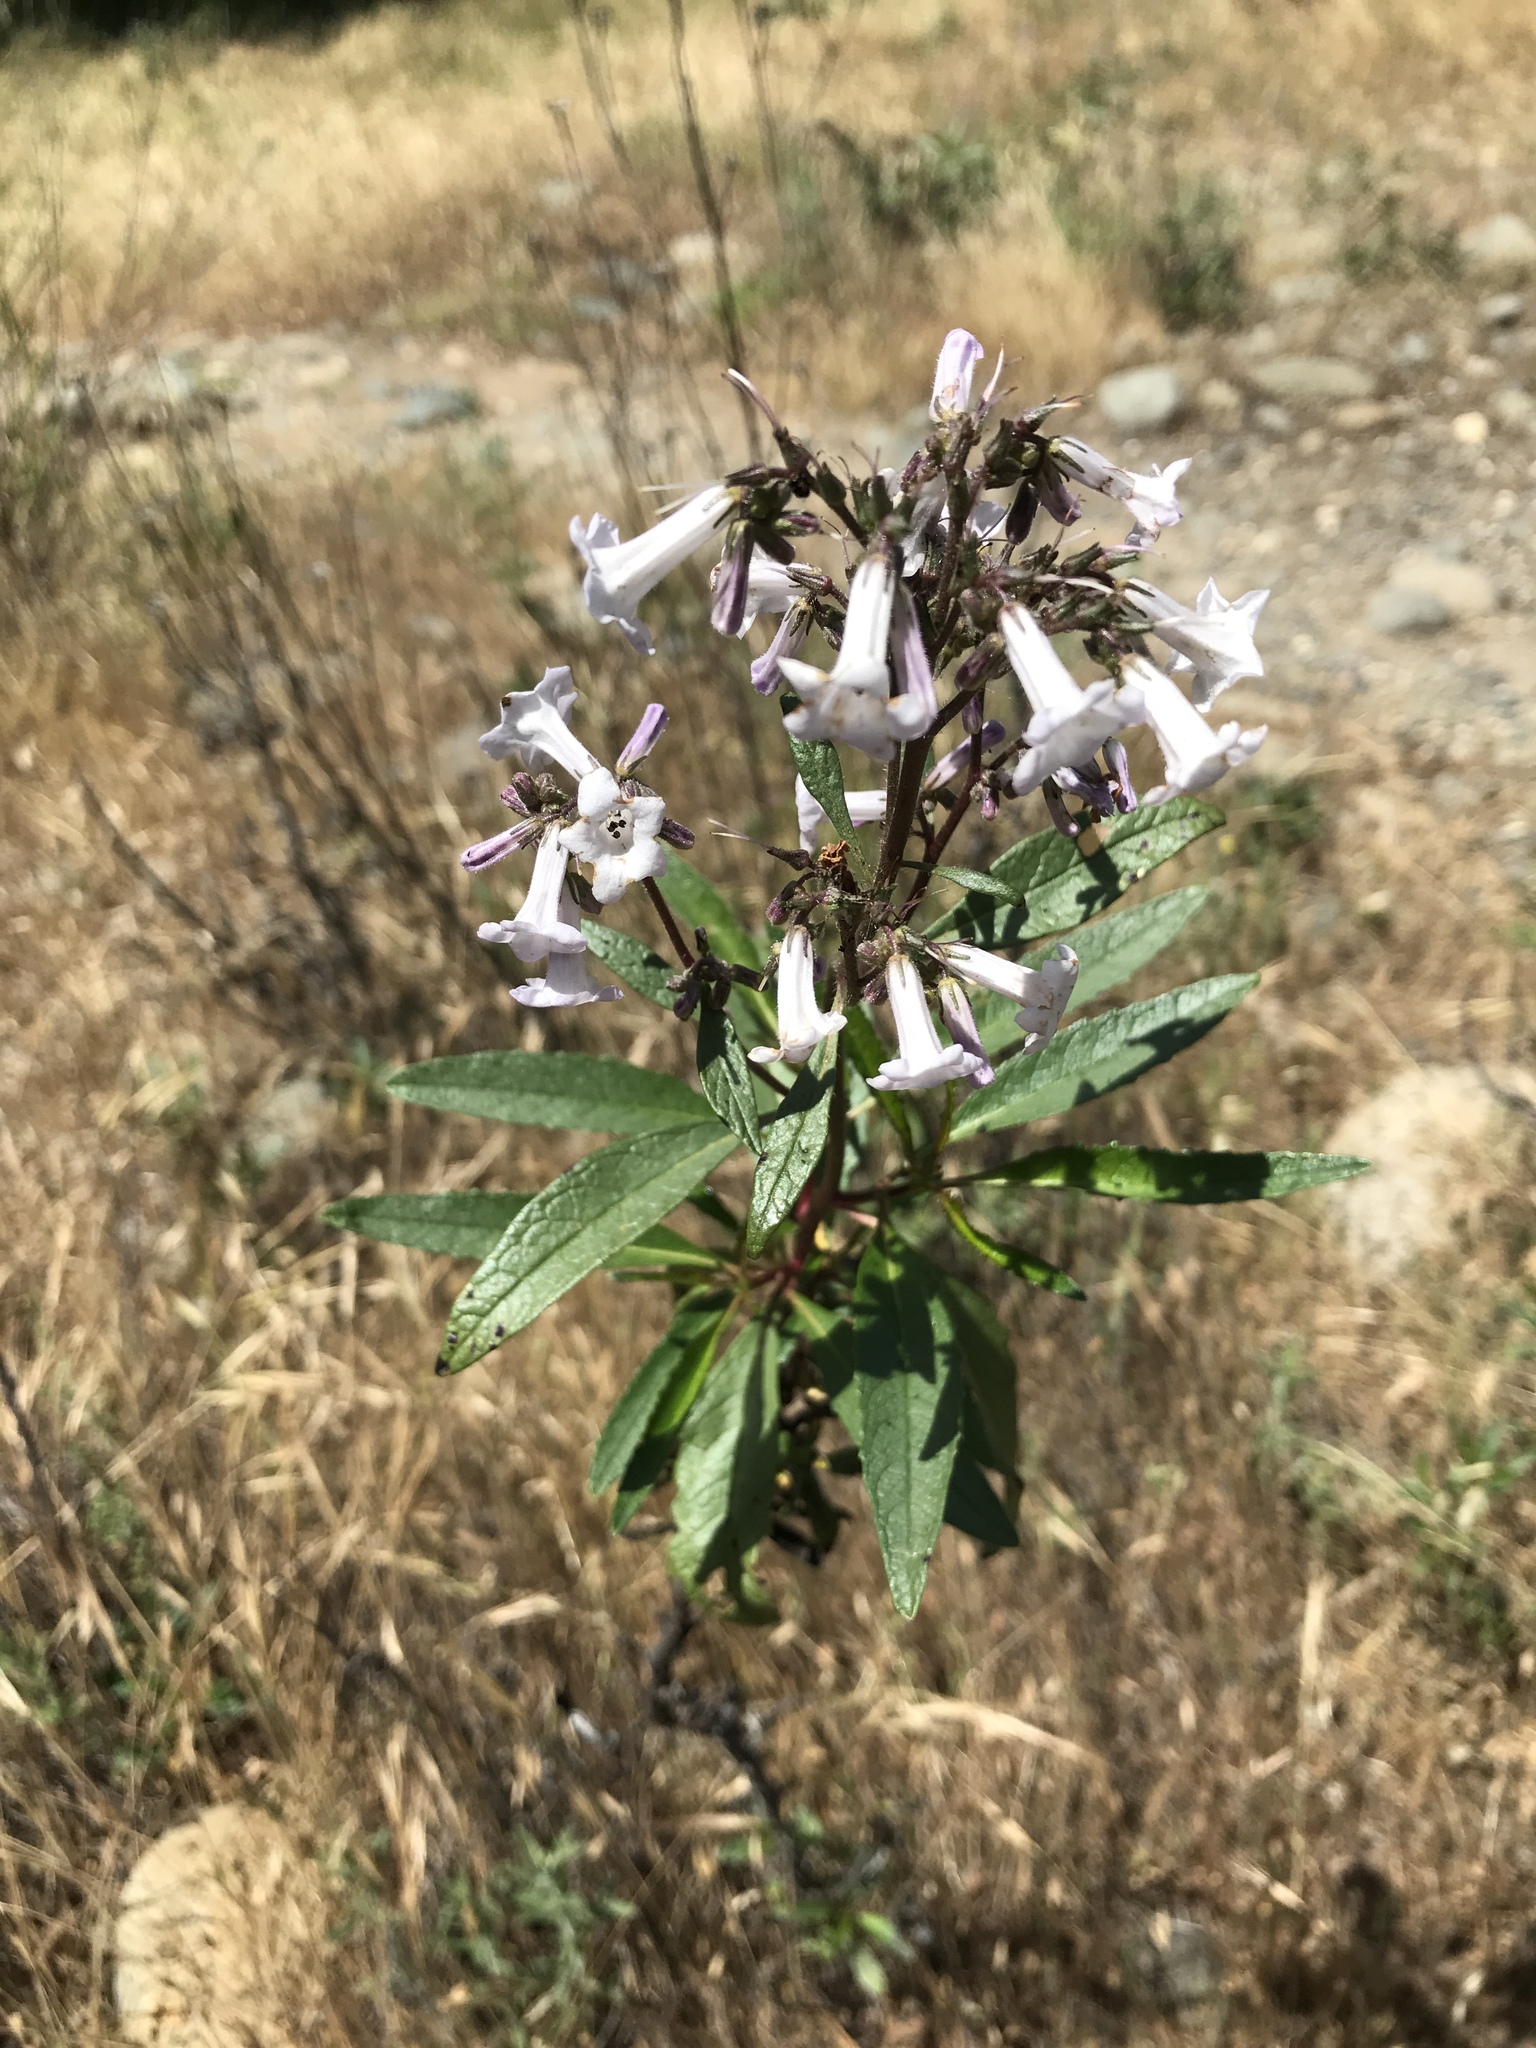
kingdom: Plantae
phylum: Tracheophyta
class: Magnoliopsida
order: Boraginales
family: Namaceae
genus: Eriodictyon
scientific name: Eriodictyon californicum
